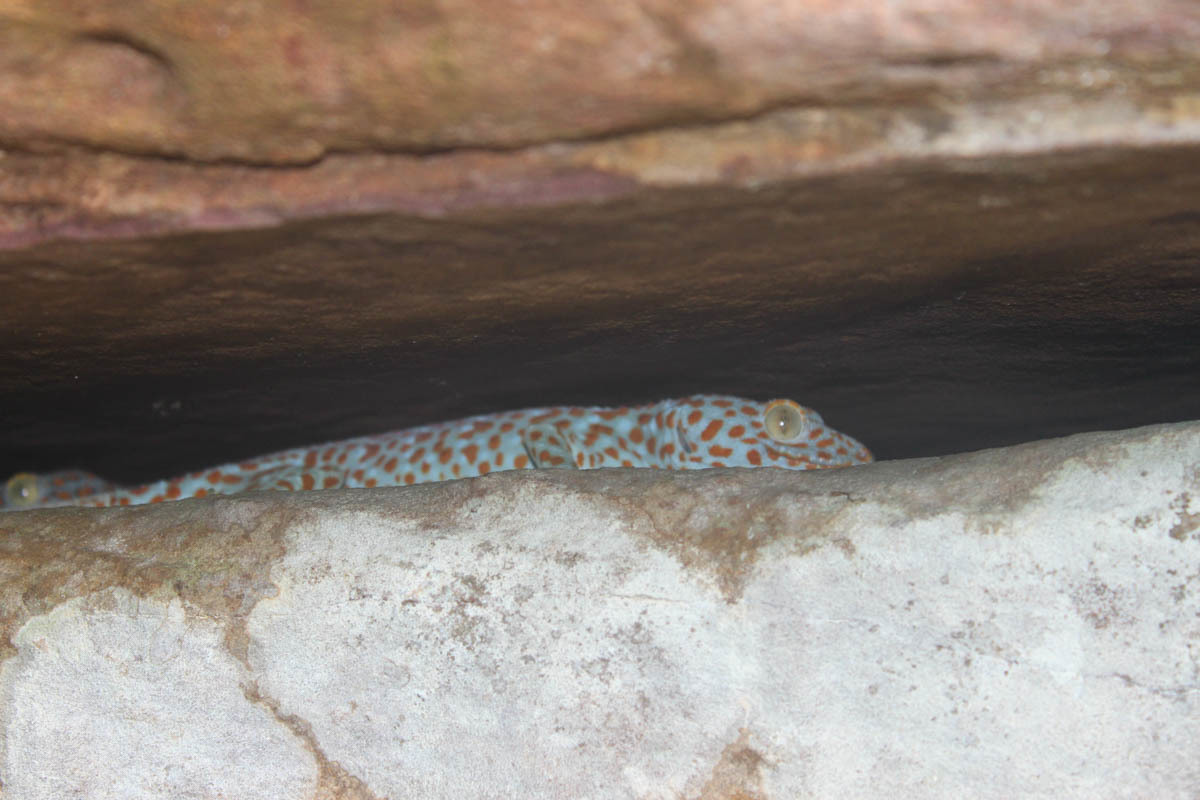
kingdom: Animalia
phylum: Chordata
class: Squamata
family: Gekkonidae
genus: Gekko
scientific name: Gekko gecko
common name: Tokay gecko
